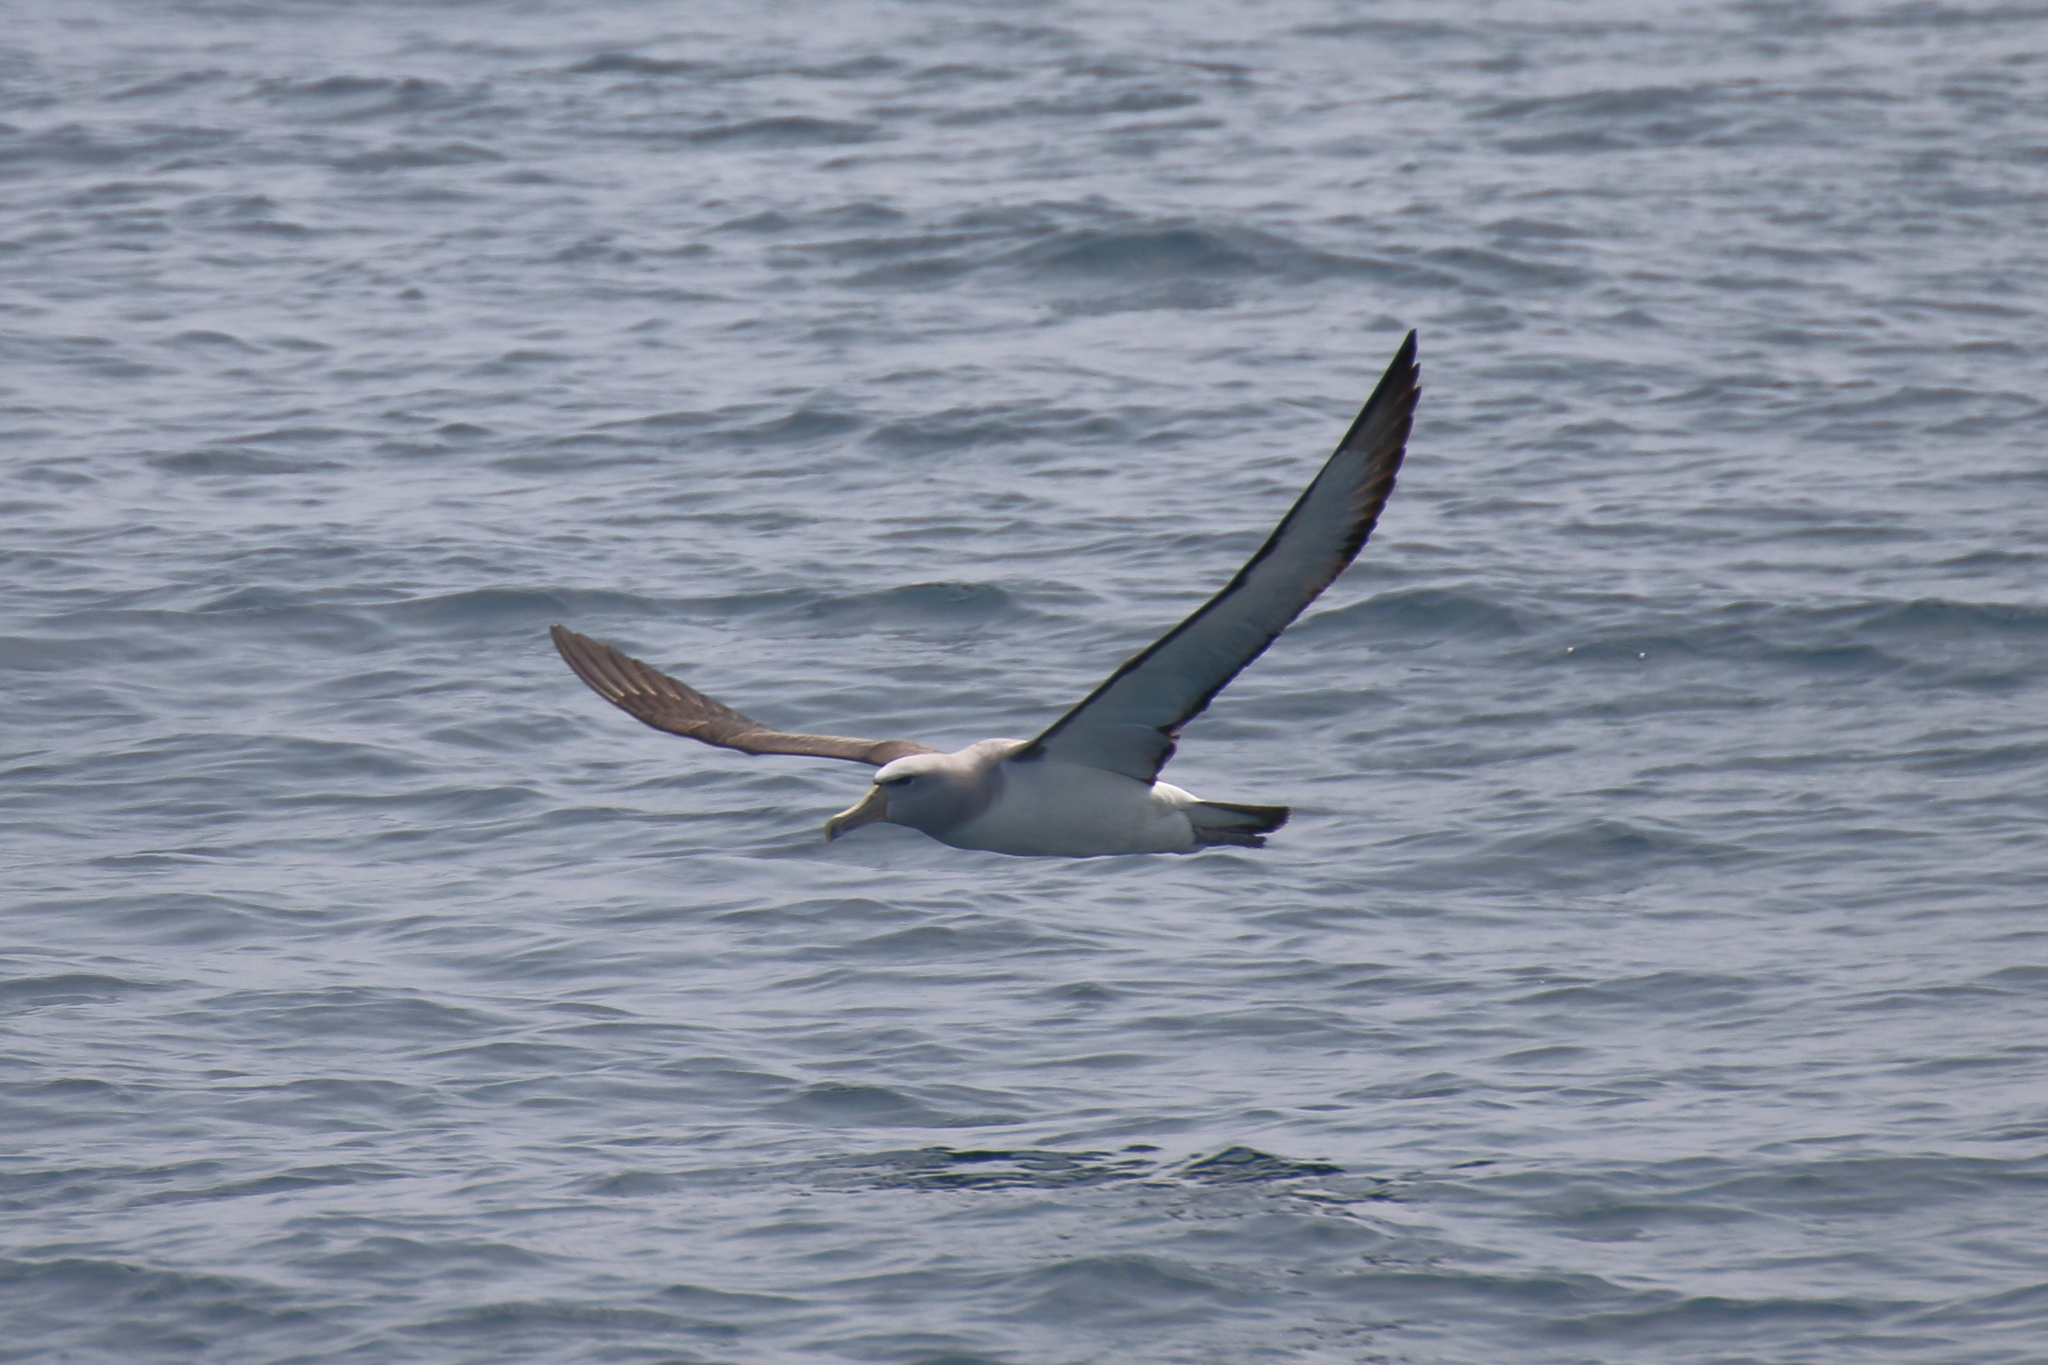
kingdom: Animalia
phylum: Chordata
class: Aves
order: Procellariiformes
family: Diomedeidae
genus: Thalassarche
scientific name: Thalassarche salvini
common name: Salvin's albatross
